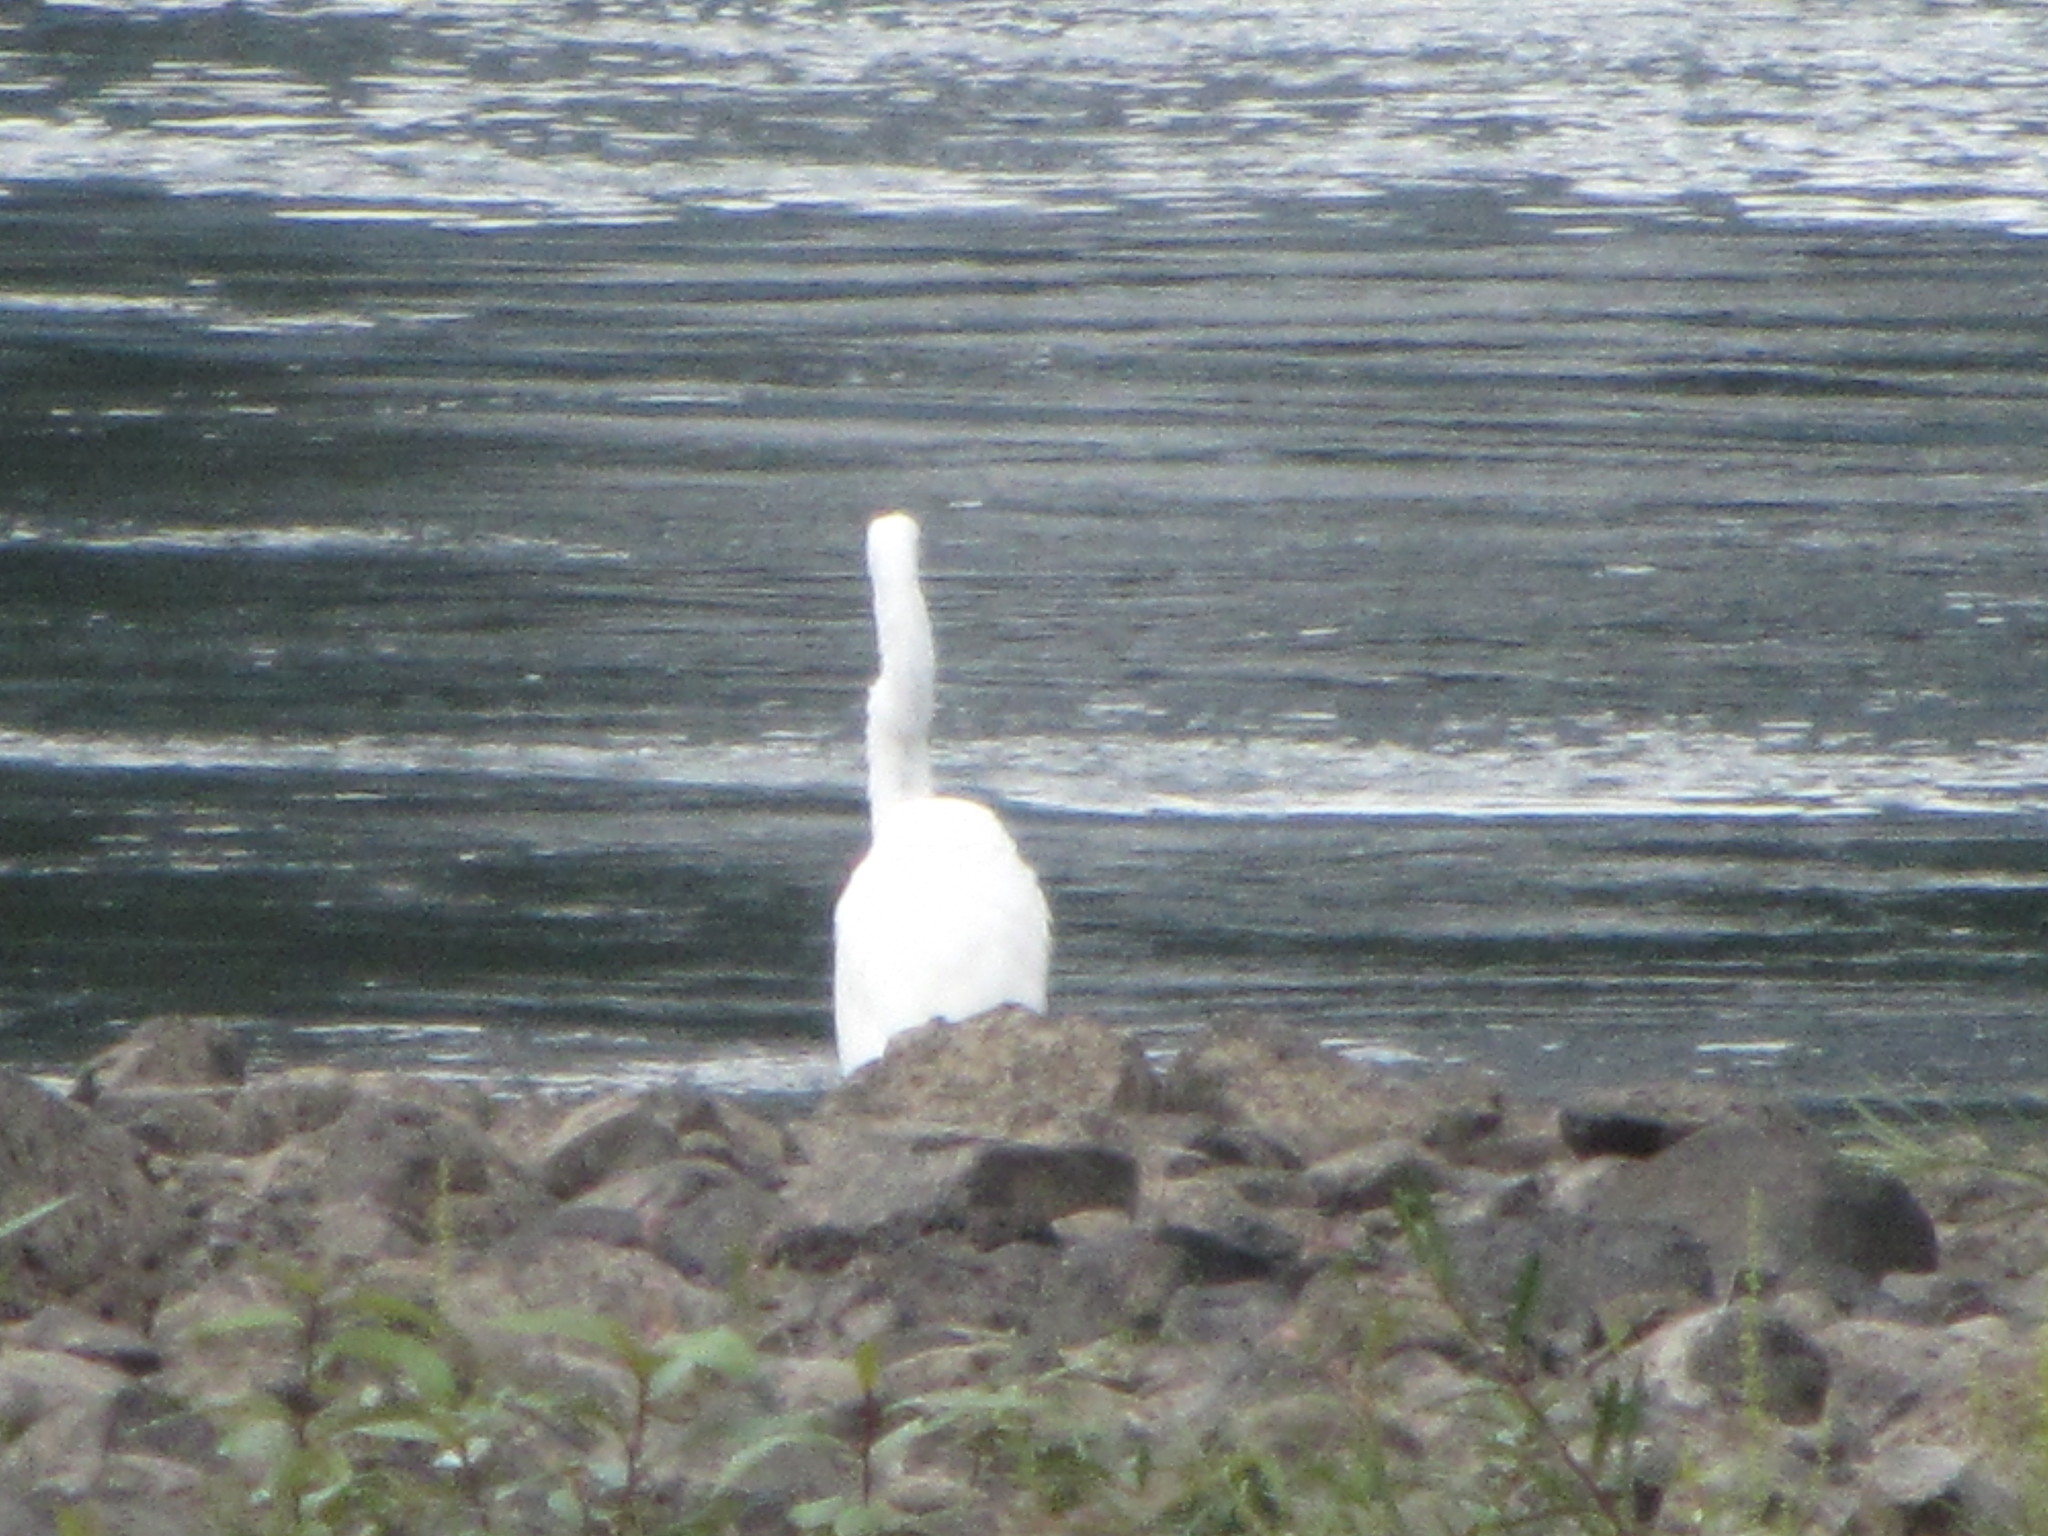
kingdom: Animalia
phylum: Chordata
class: Aves
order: Pelecaniformes
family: Ardeidae
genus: Ardea
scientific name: Ardea alba
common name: Great egret
